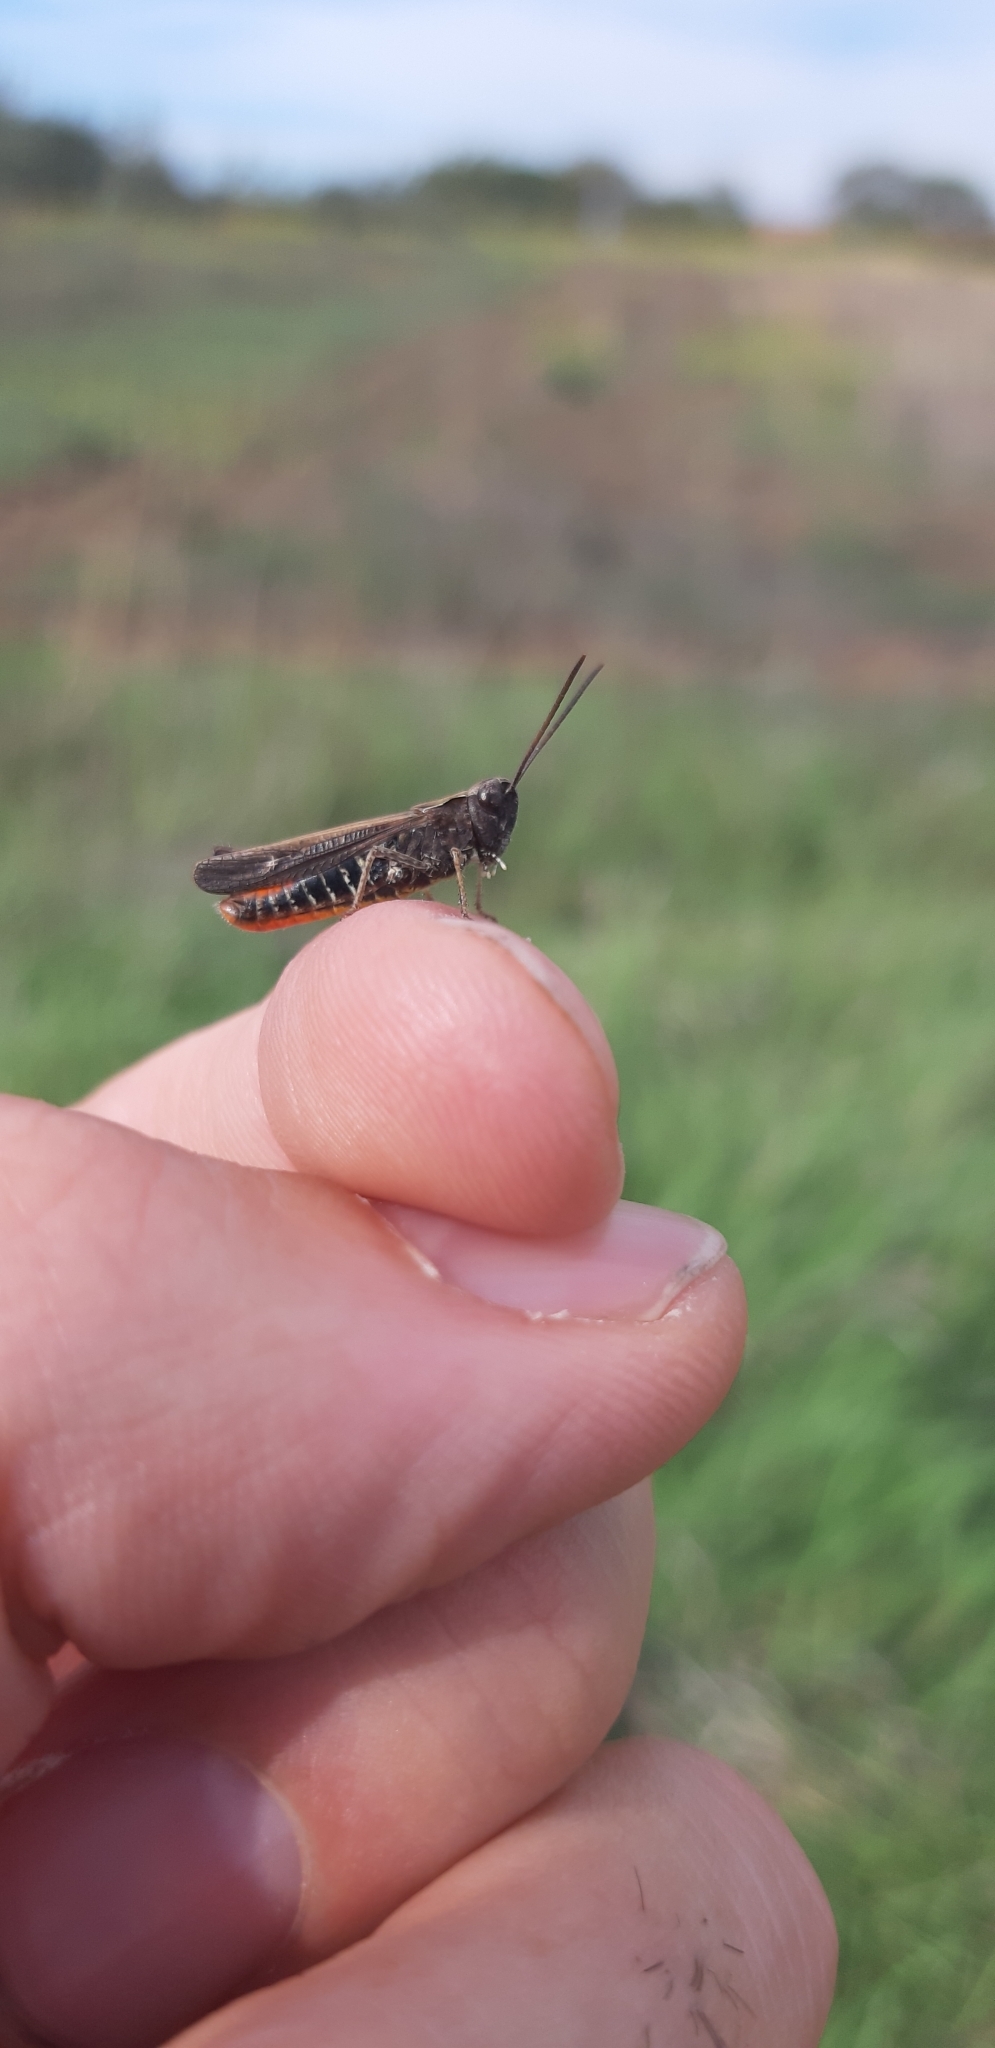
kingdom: Animalia
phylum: Arthropoda
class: Insecta
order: Orthoptera
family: Acrididae
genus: Omocestus
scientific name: Omocestus rufipes
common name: Woodland grasshopper
